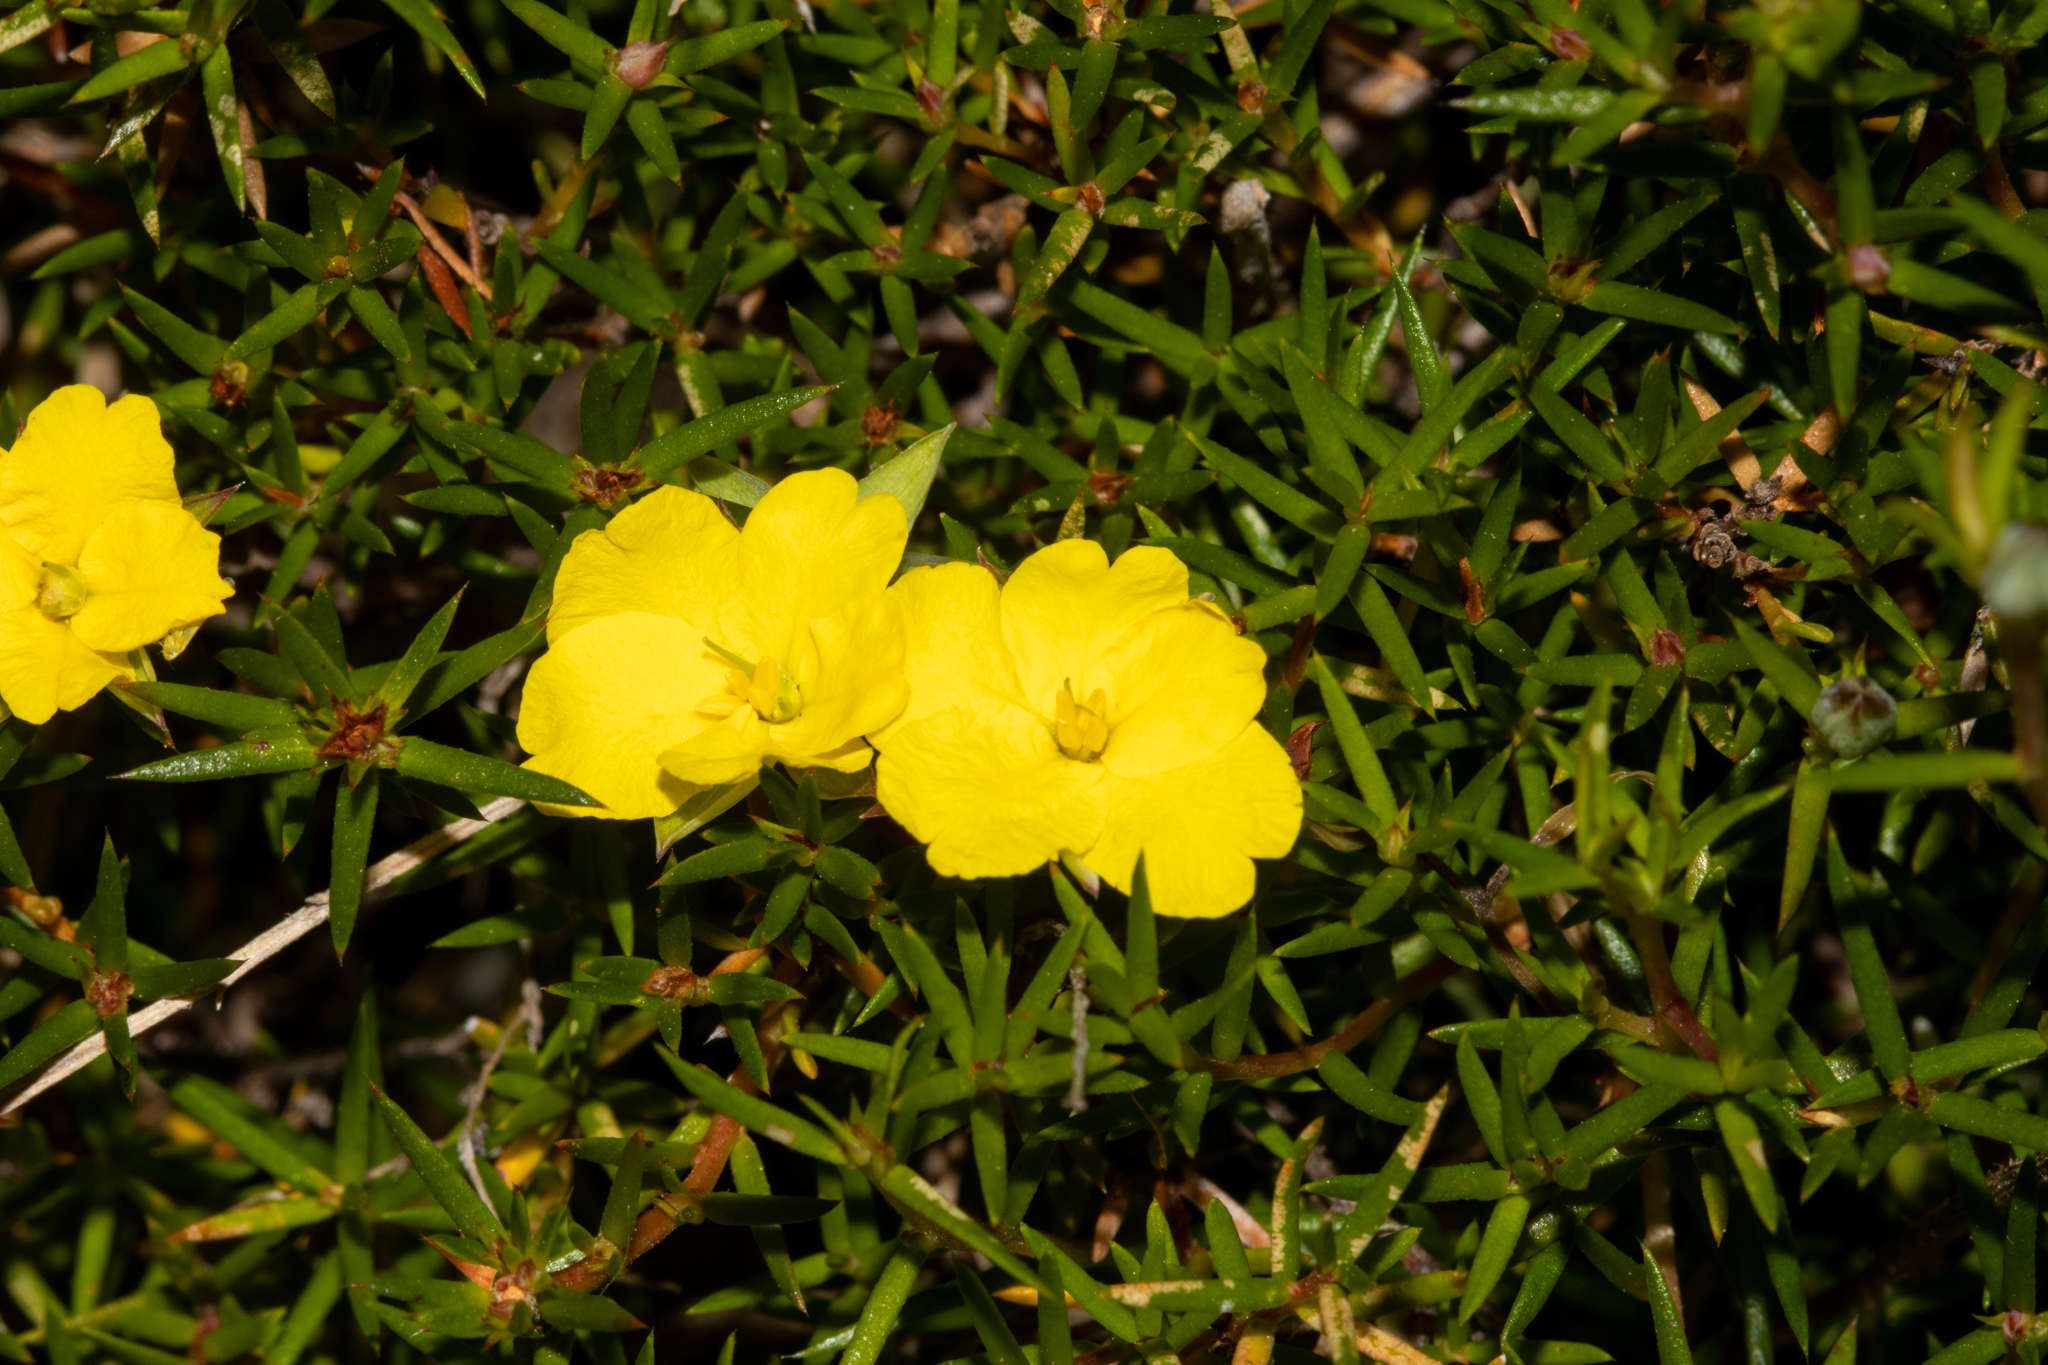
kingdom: Plantae
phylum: Tracheophyta
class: Magnoliopsida
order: Dilleniales
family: Dilleniaceae
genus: Hibbertia
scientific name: Hibbertia exutiacies
